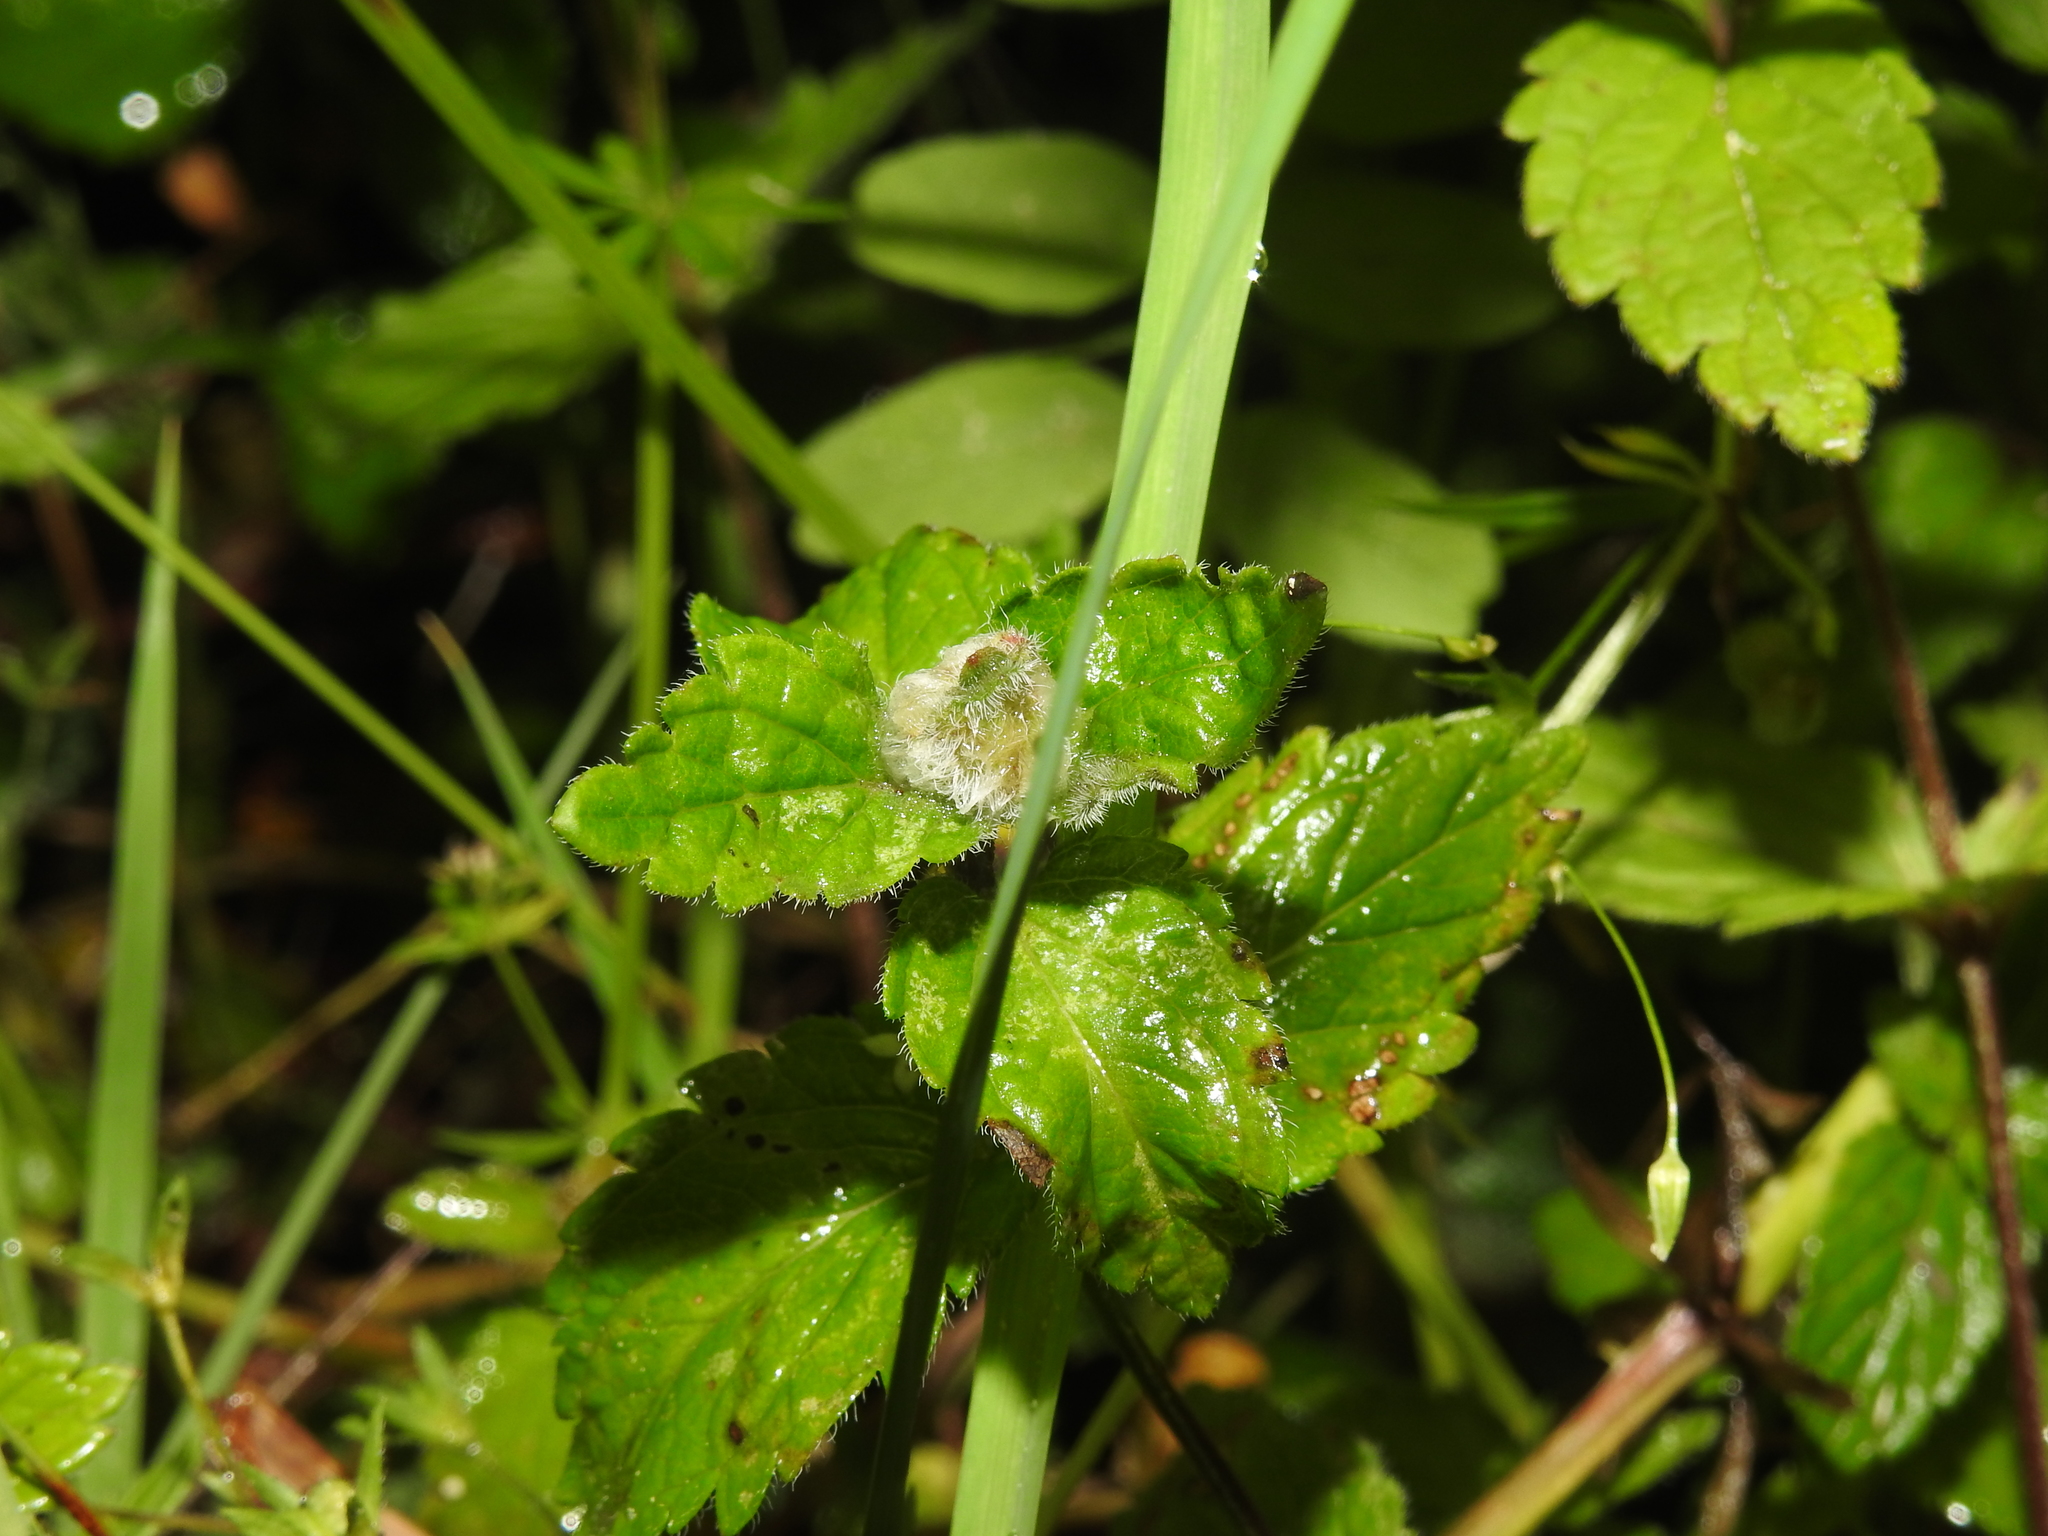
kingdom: Animalia
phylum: Arthropoda
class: Insecta
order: Diptera
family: Cecidomyiidae
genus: Jaapiella
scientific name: Jaapiella veronicae
